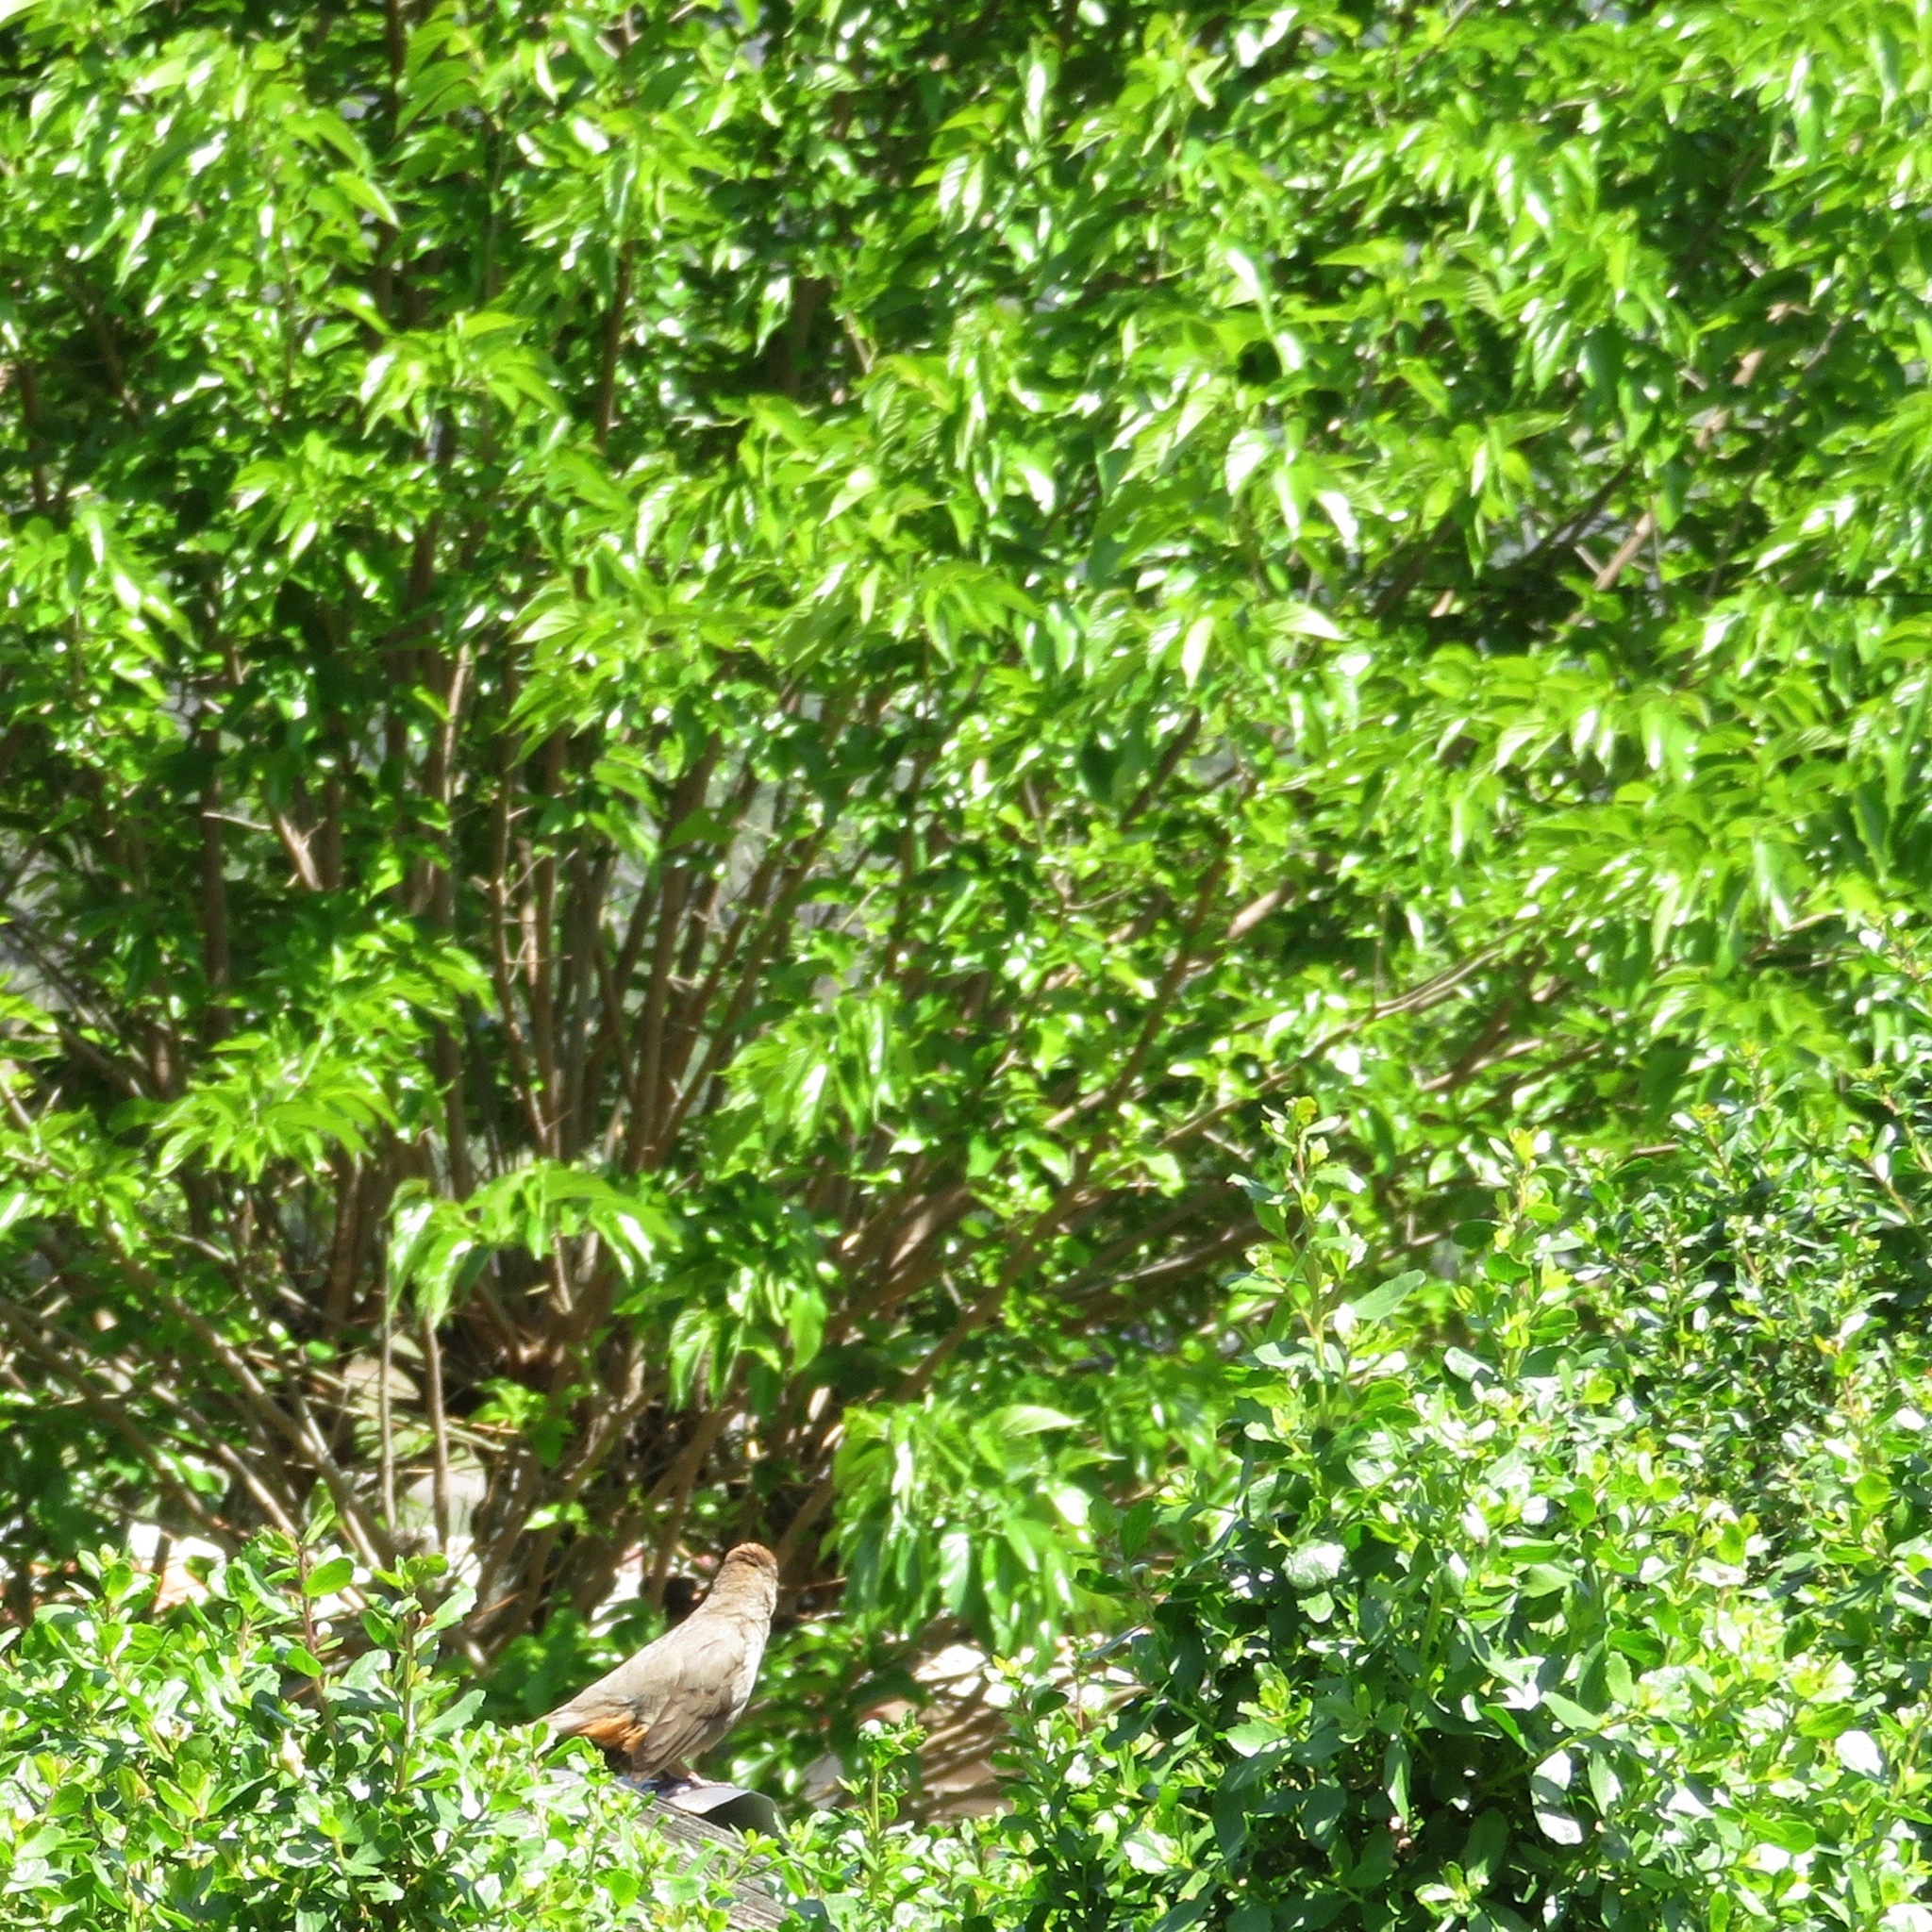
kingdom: Animalia
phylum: Chordata
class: Aves
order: Passeriformes
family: Passerellidae
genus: Melozone
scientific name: Melozone crissalis
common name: California towhee
